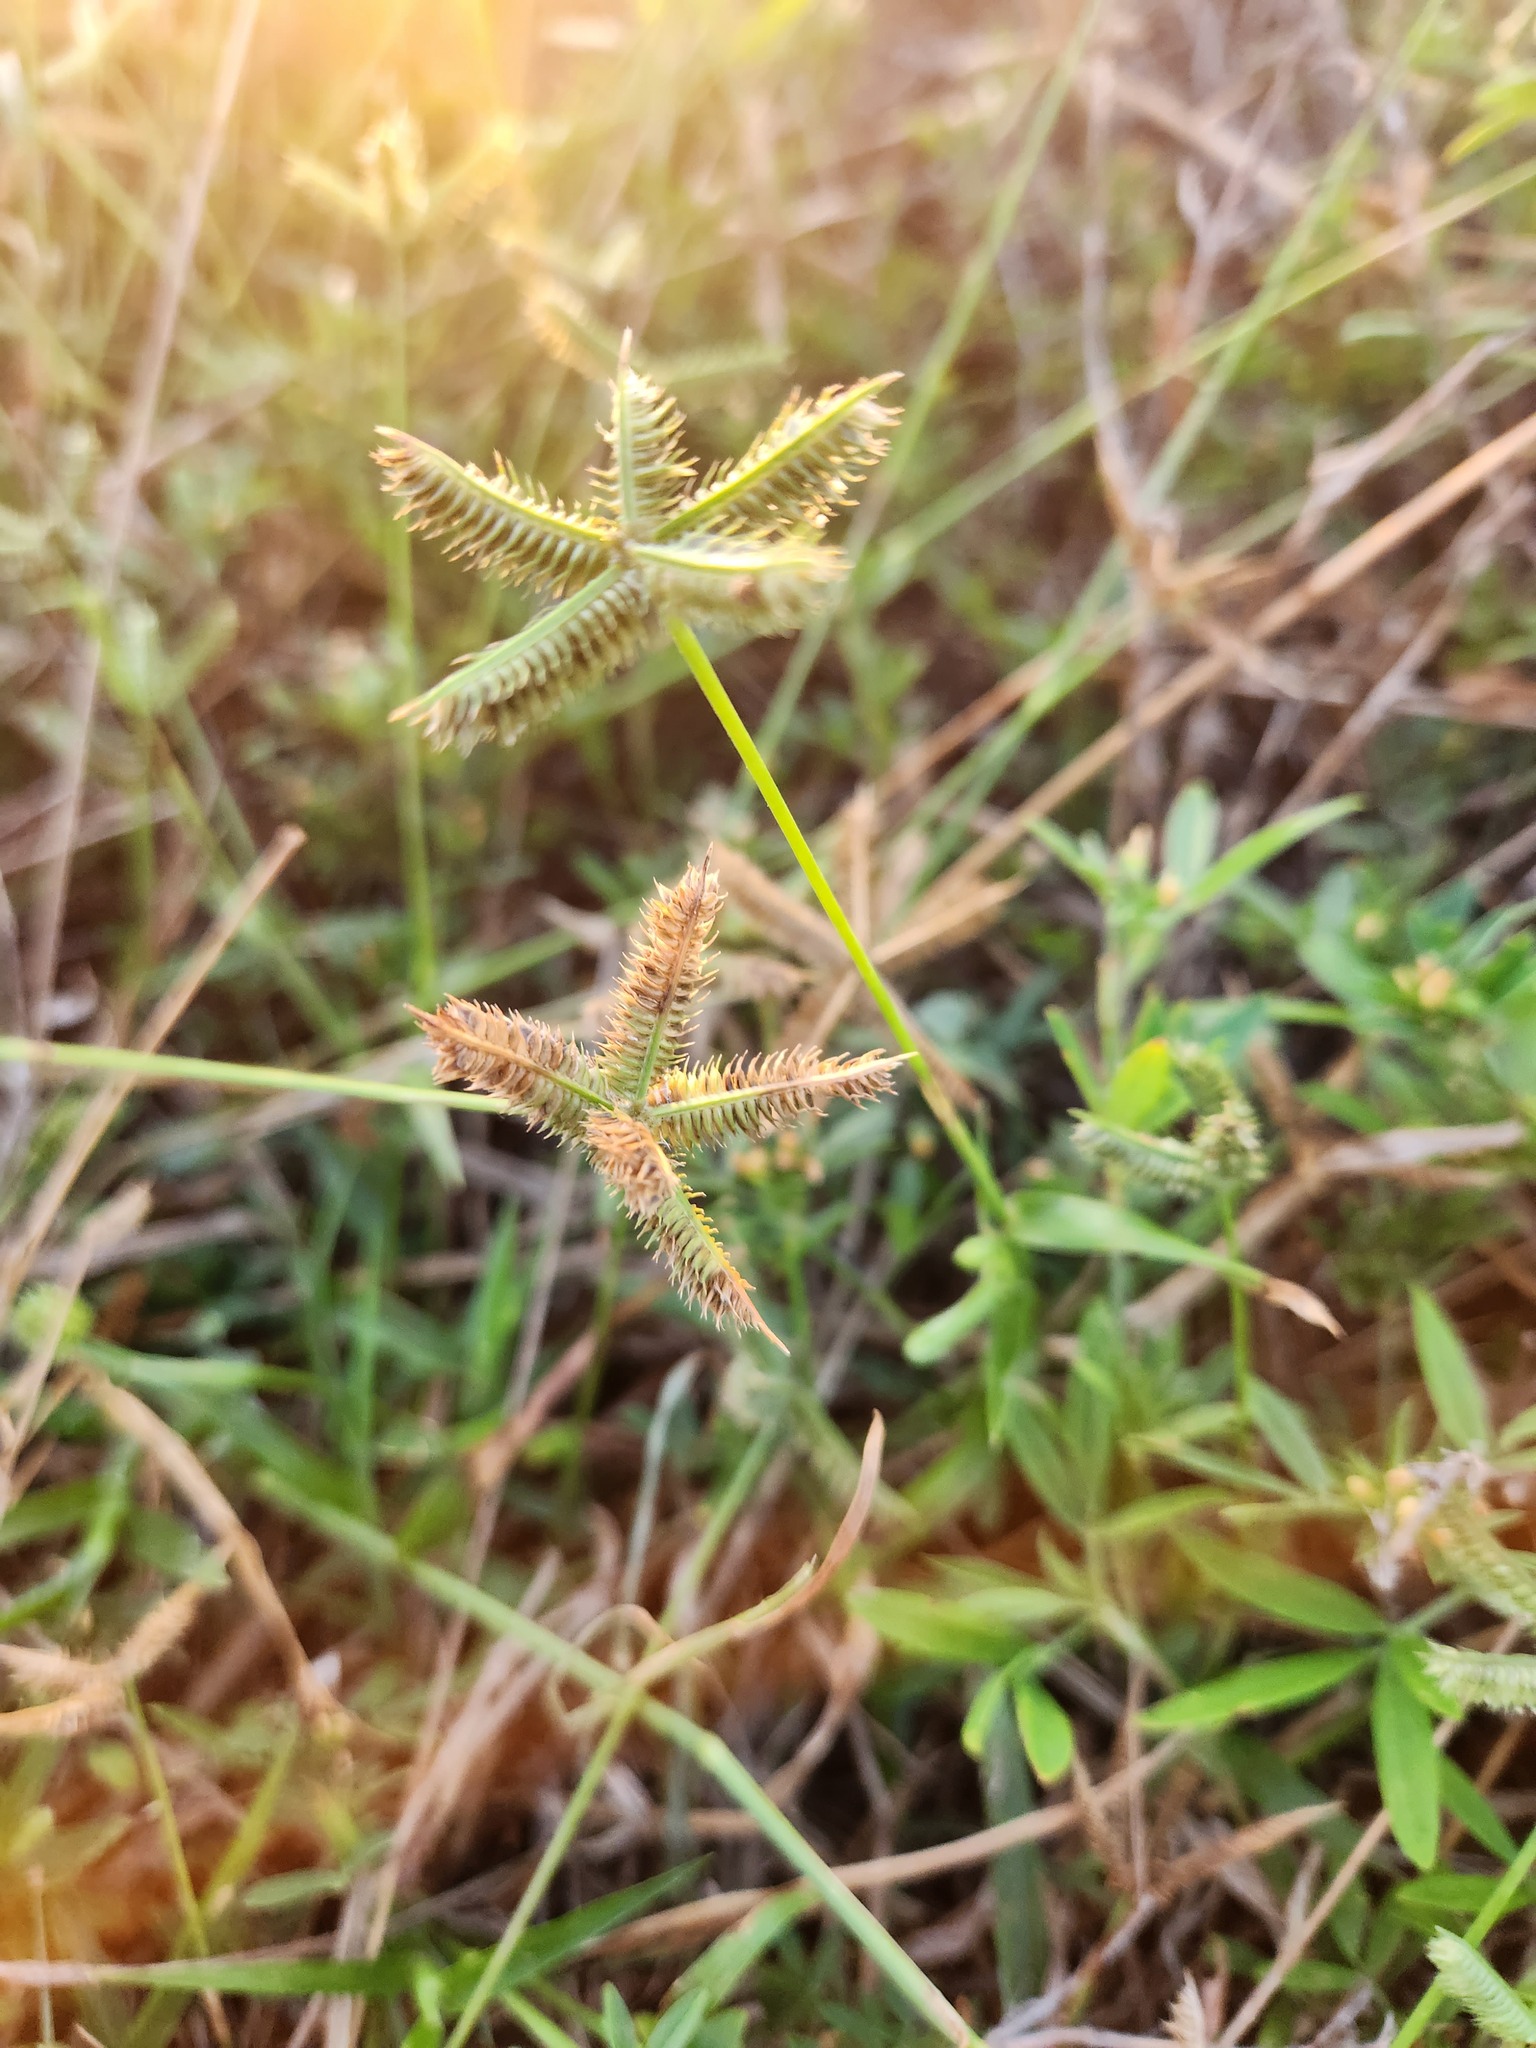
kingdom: Plantae
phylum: Tracheophyta
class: Liliopsida
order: Poales
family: Poaceae
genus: Dactyloctenium
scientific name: Dactyloctenium aegyptium
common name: Egyptian grass
